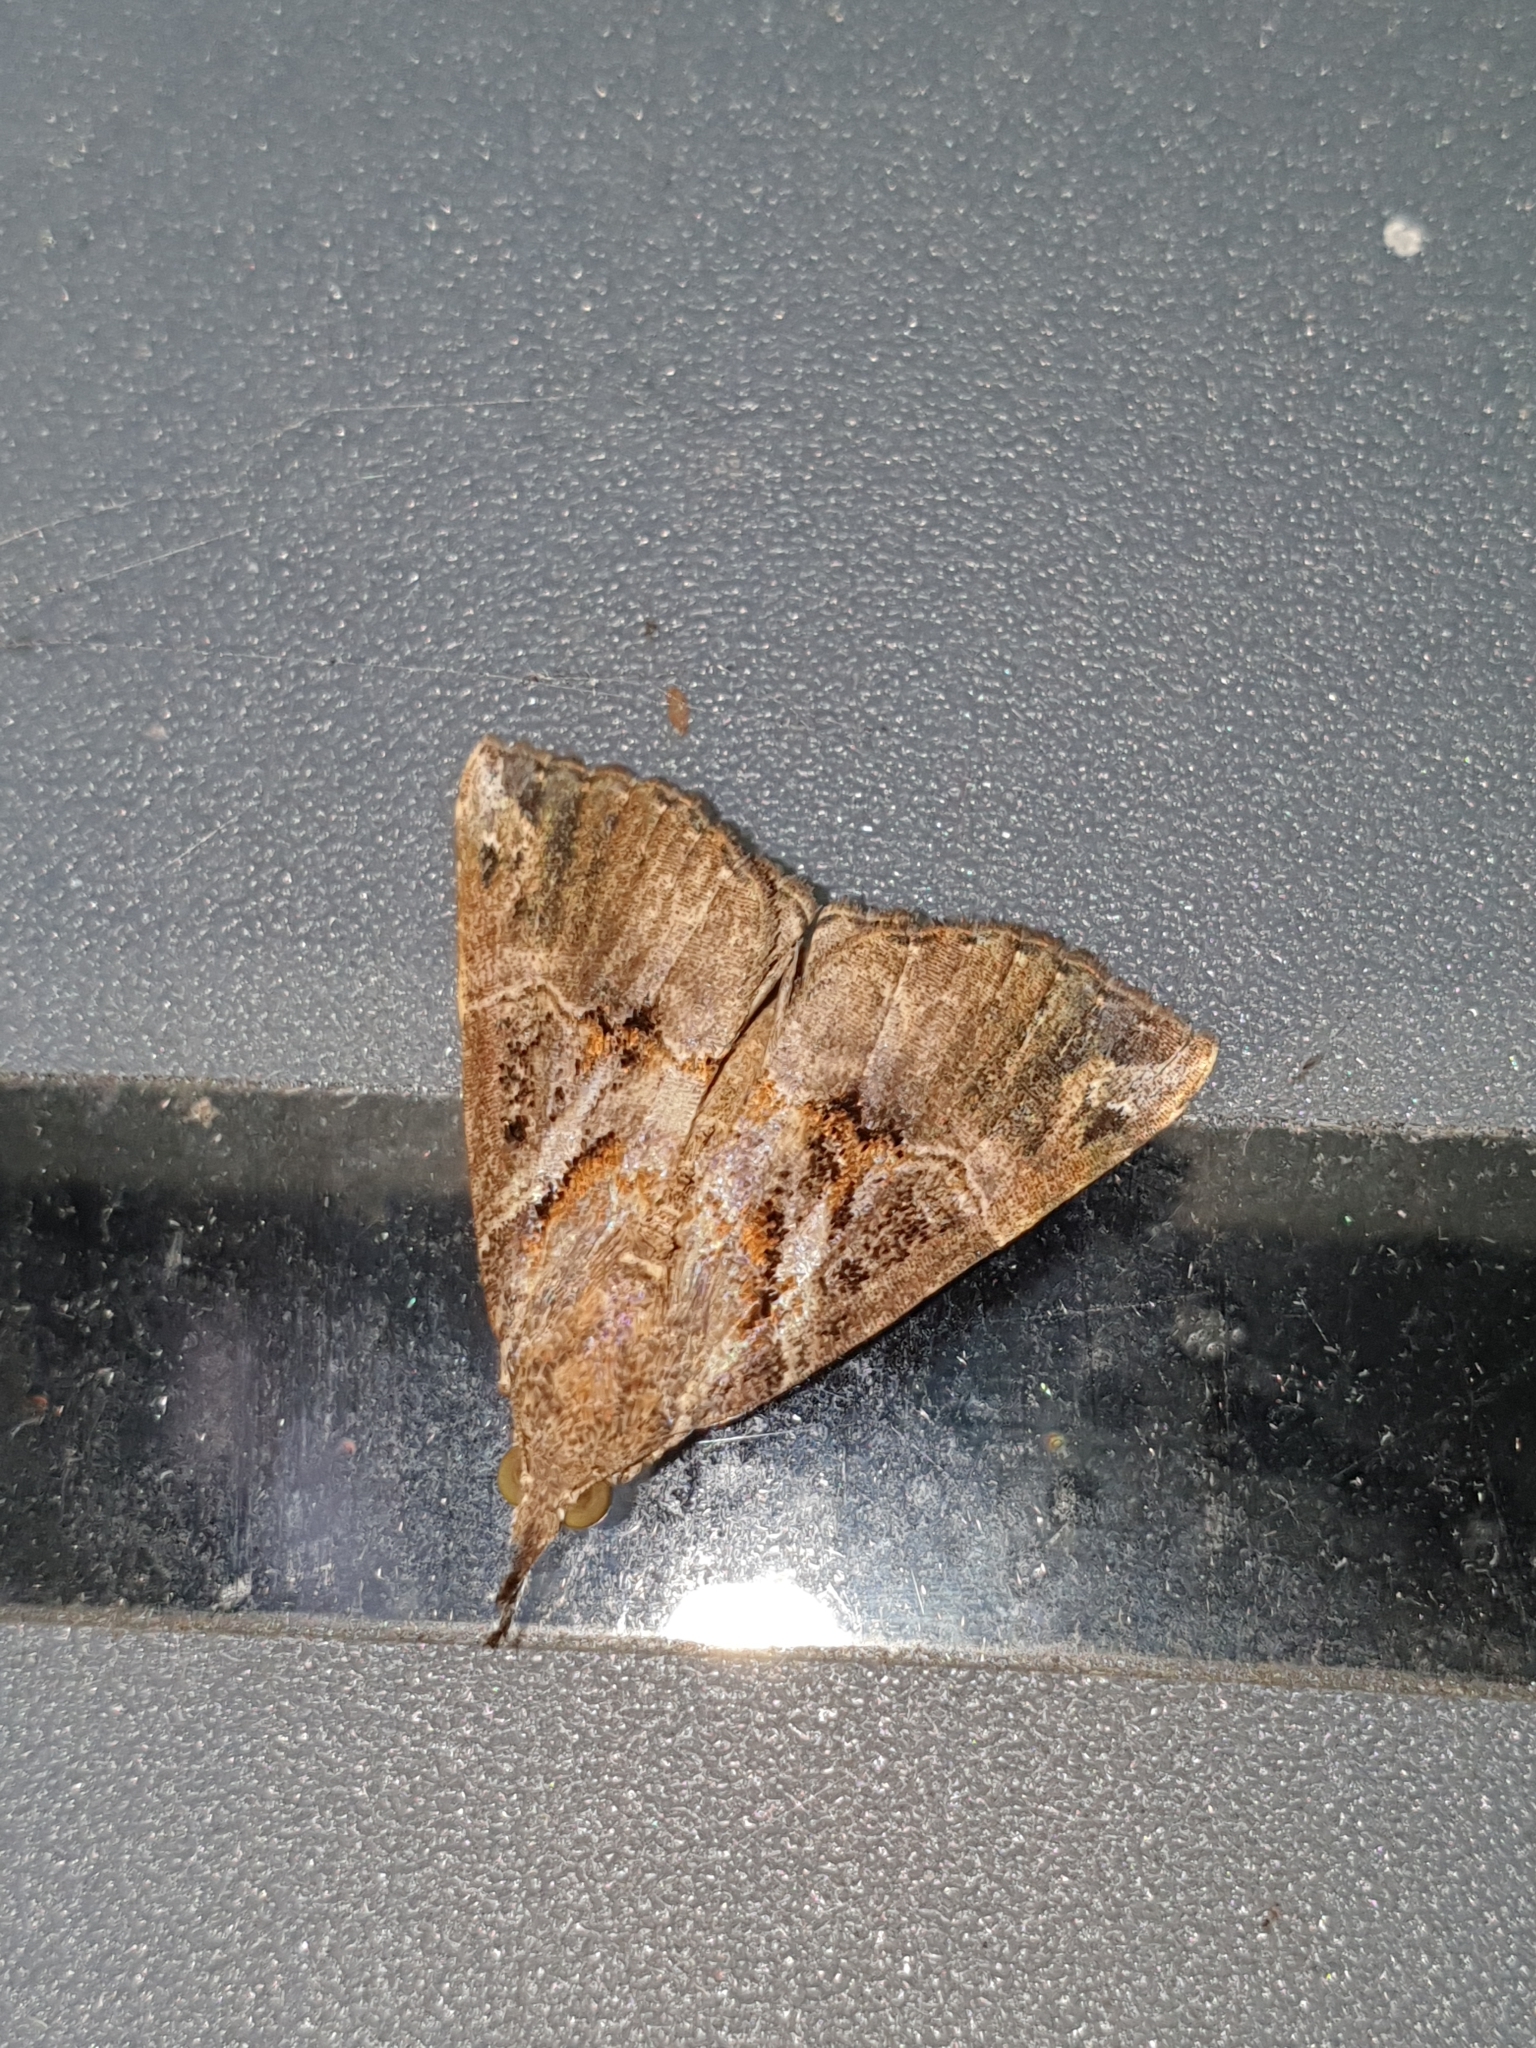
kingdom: Animalia
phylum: Arthropoda
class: Insecta
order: Lepidoptera
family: Erebidae
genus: Hypena
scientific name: Hypena commixtalis
